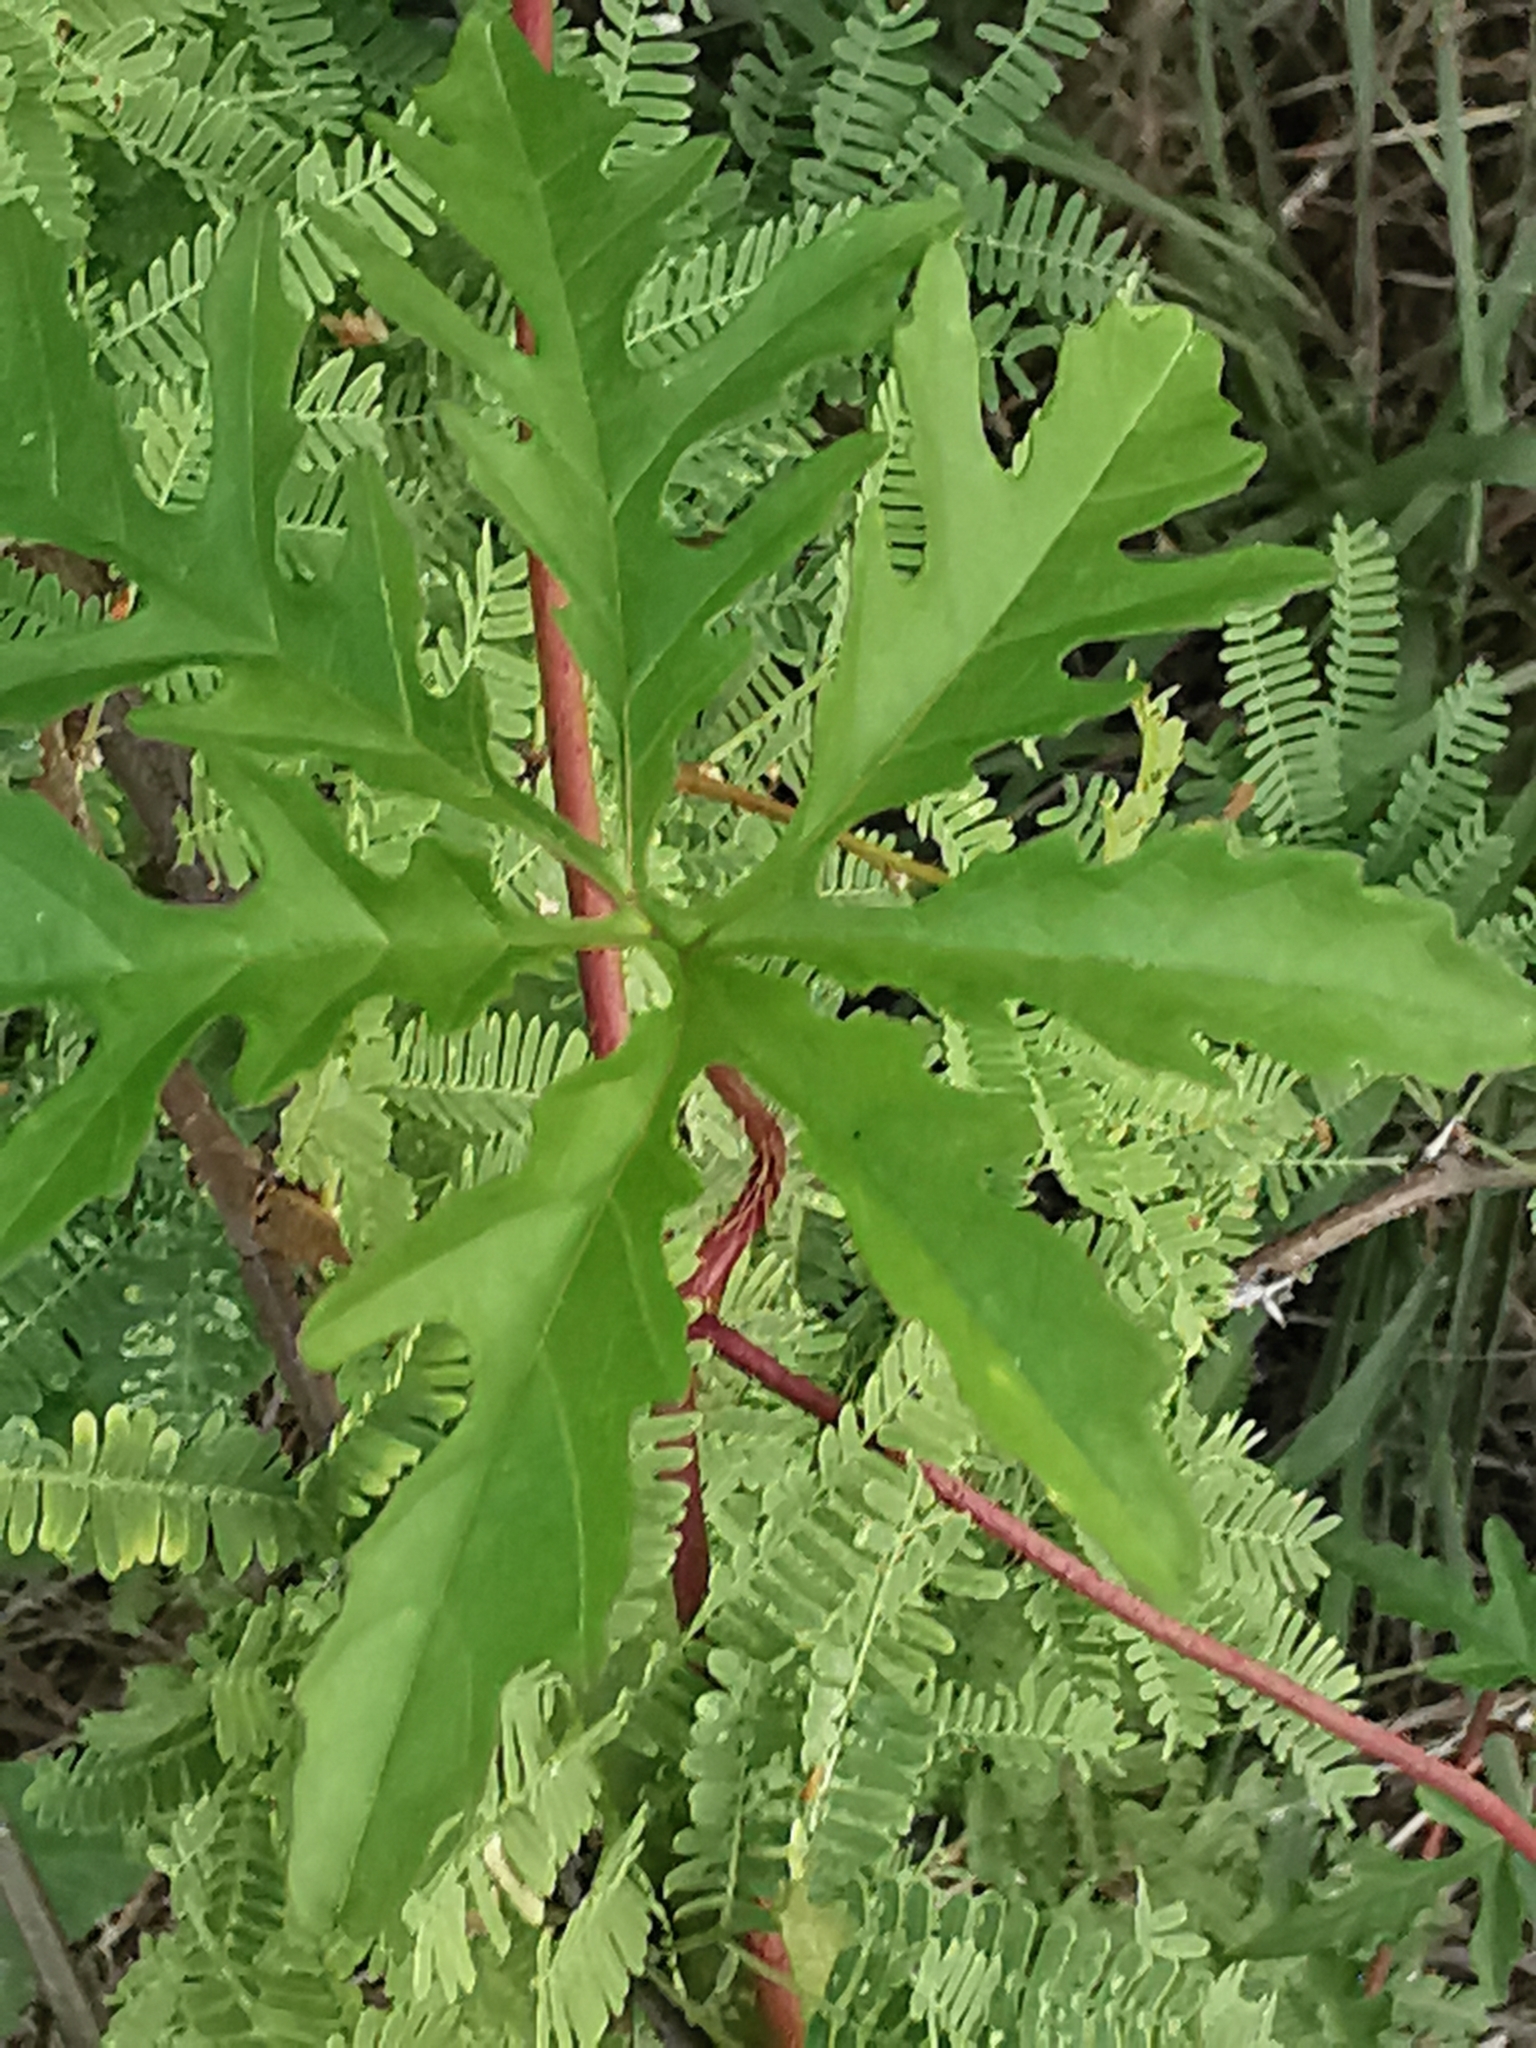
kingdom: Plantae
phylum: Tracheophyta
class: Magnoliopsida
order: Solanales
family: Convolvulaceae
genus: Distimake
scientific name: Distimake dissectus
